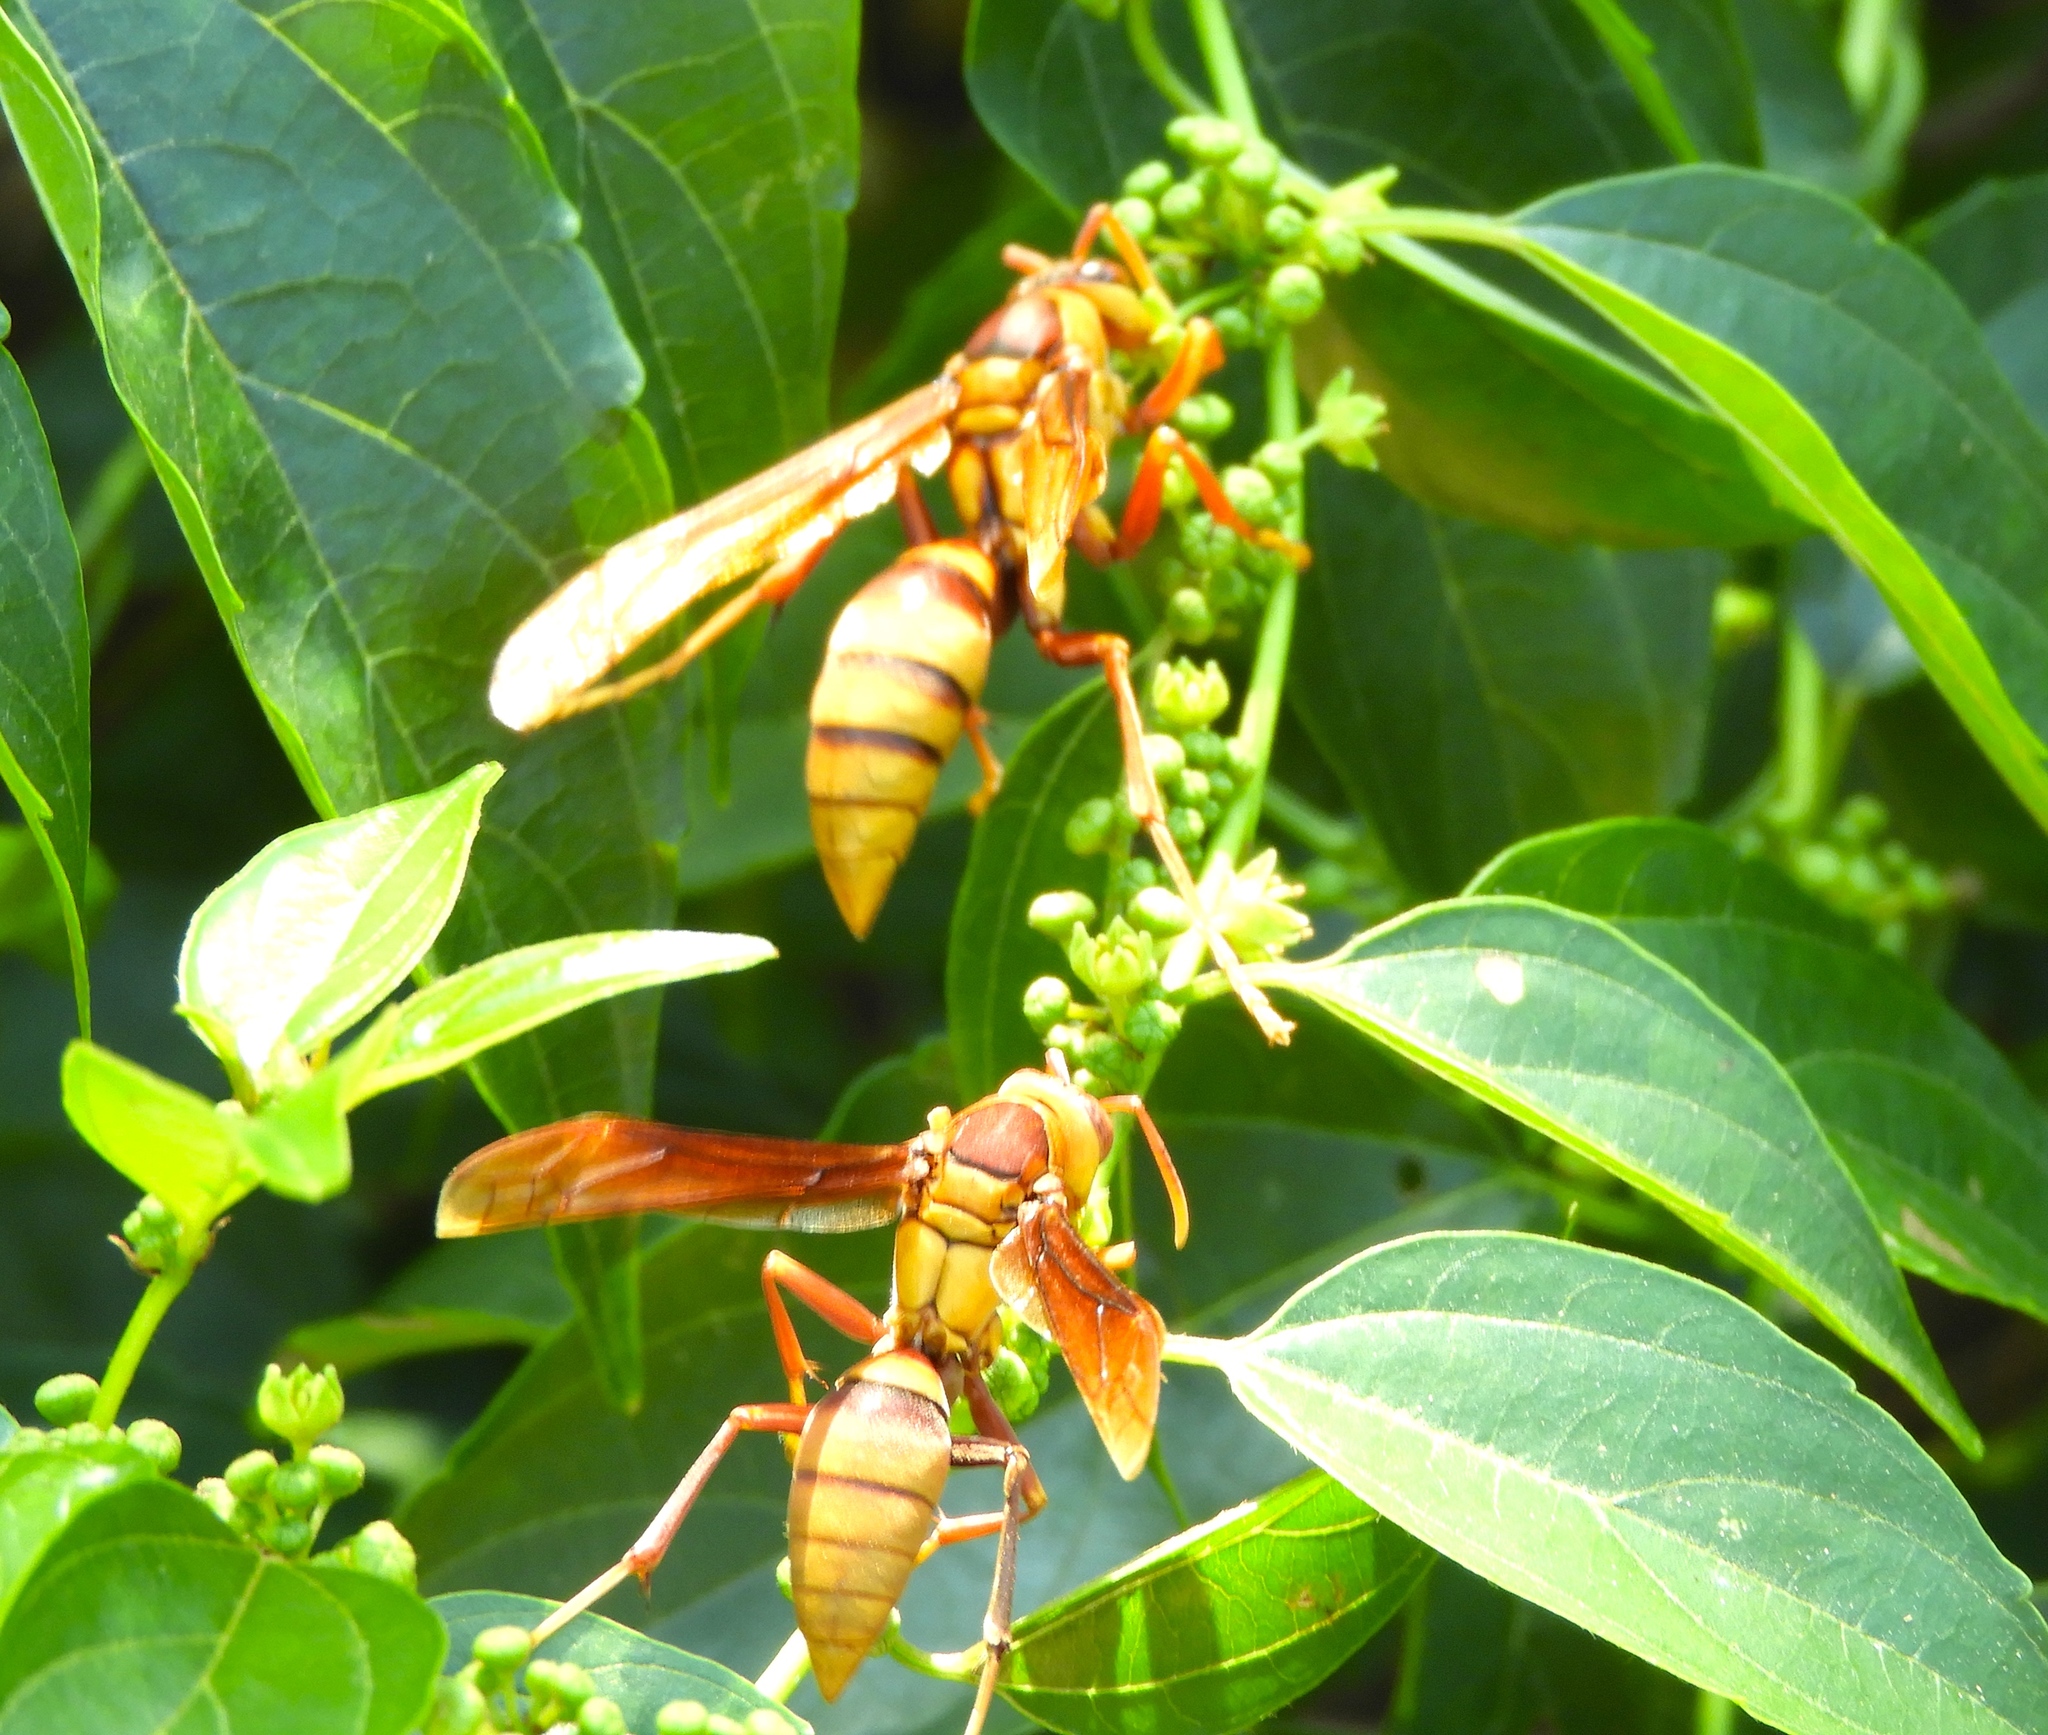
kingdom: Animalia
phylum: Arthropoda
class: Insecta
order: Hymenoptera
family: Vespidae
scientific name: Vespidae
